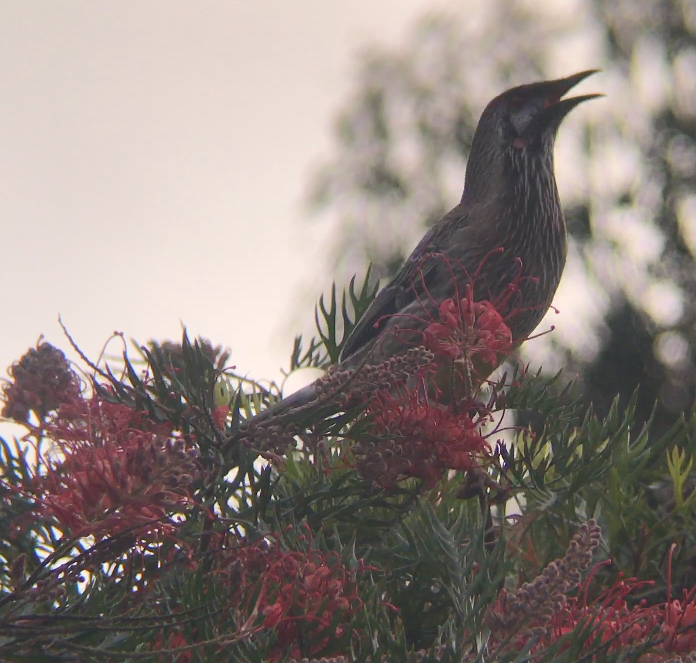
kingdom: Animalia
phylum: Chordata
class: Aves
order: Passeriformes
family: Meliphagidae
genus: Anthochaera
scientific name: Anthochaera carunculata
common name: Red wattlebird
